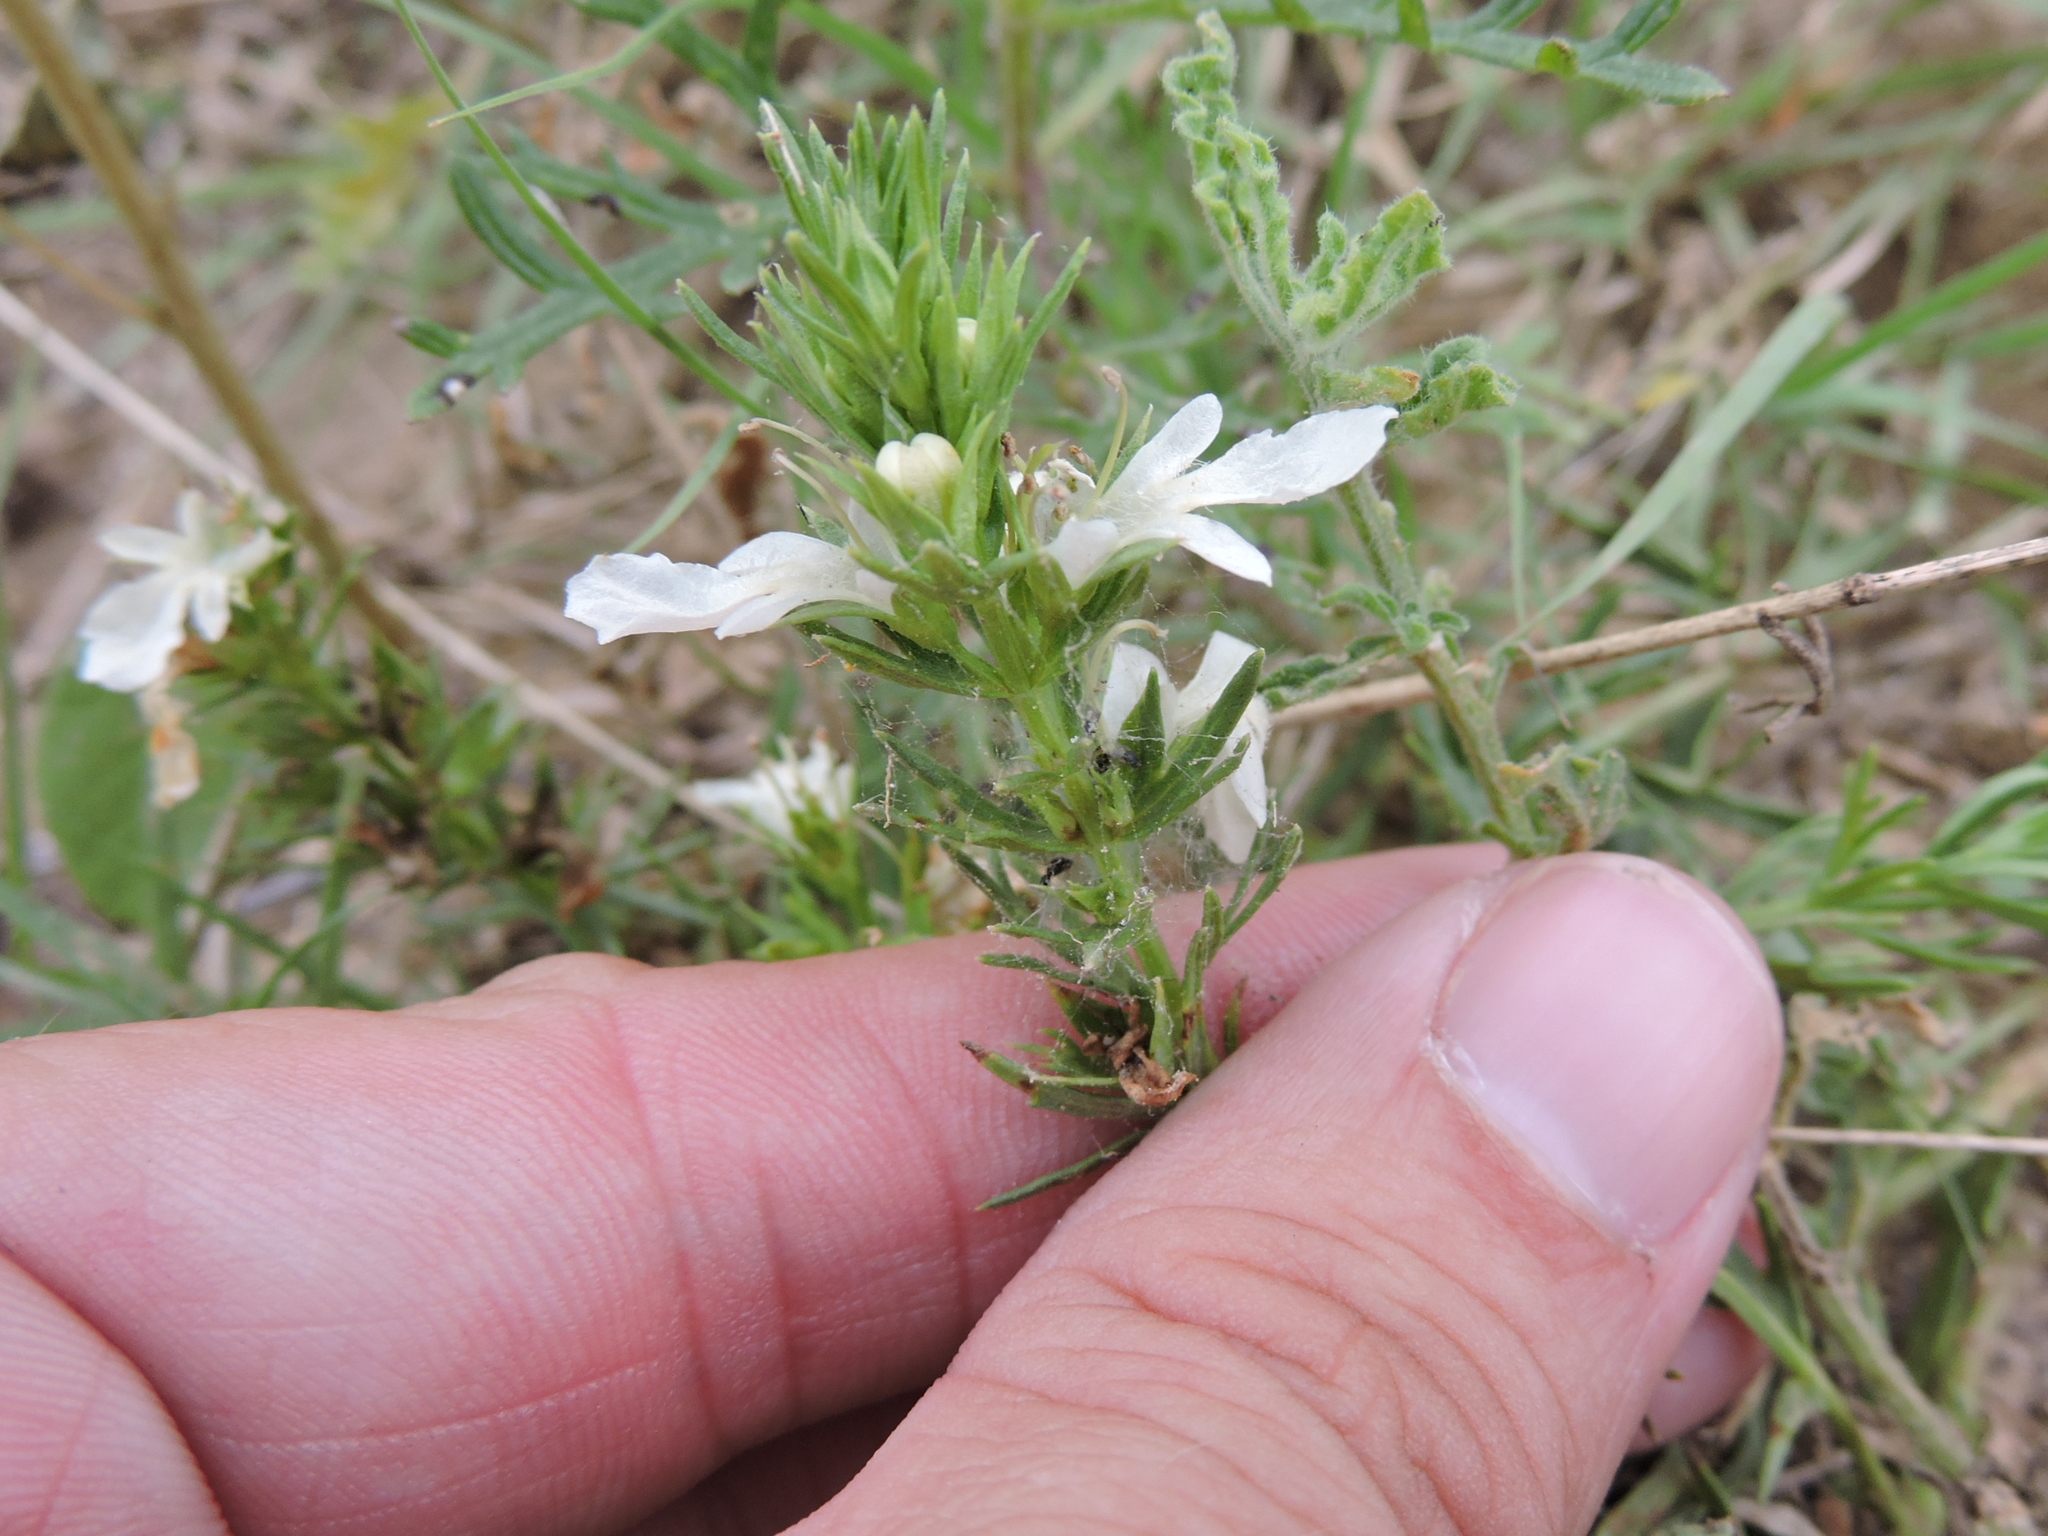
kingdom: Plantae
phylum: Tracheophyta
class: Magnoliopsida
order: Lamiales
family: Lamiaceae
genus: Teucrium
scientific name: Teucrium laciniatum
